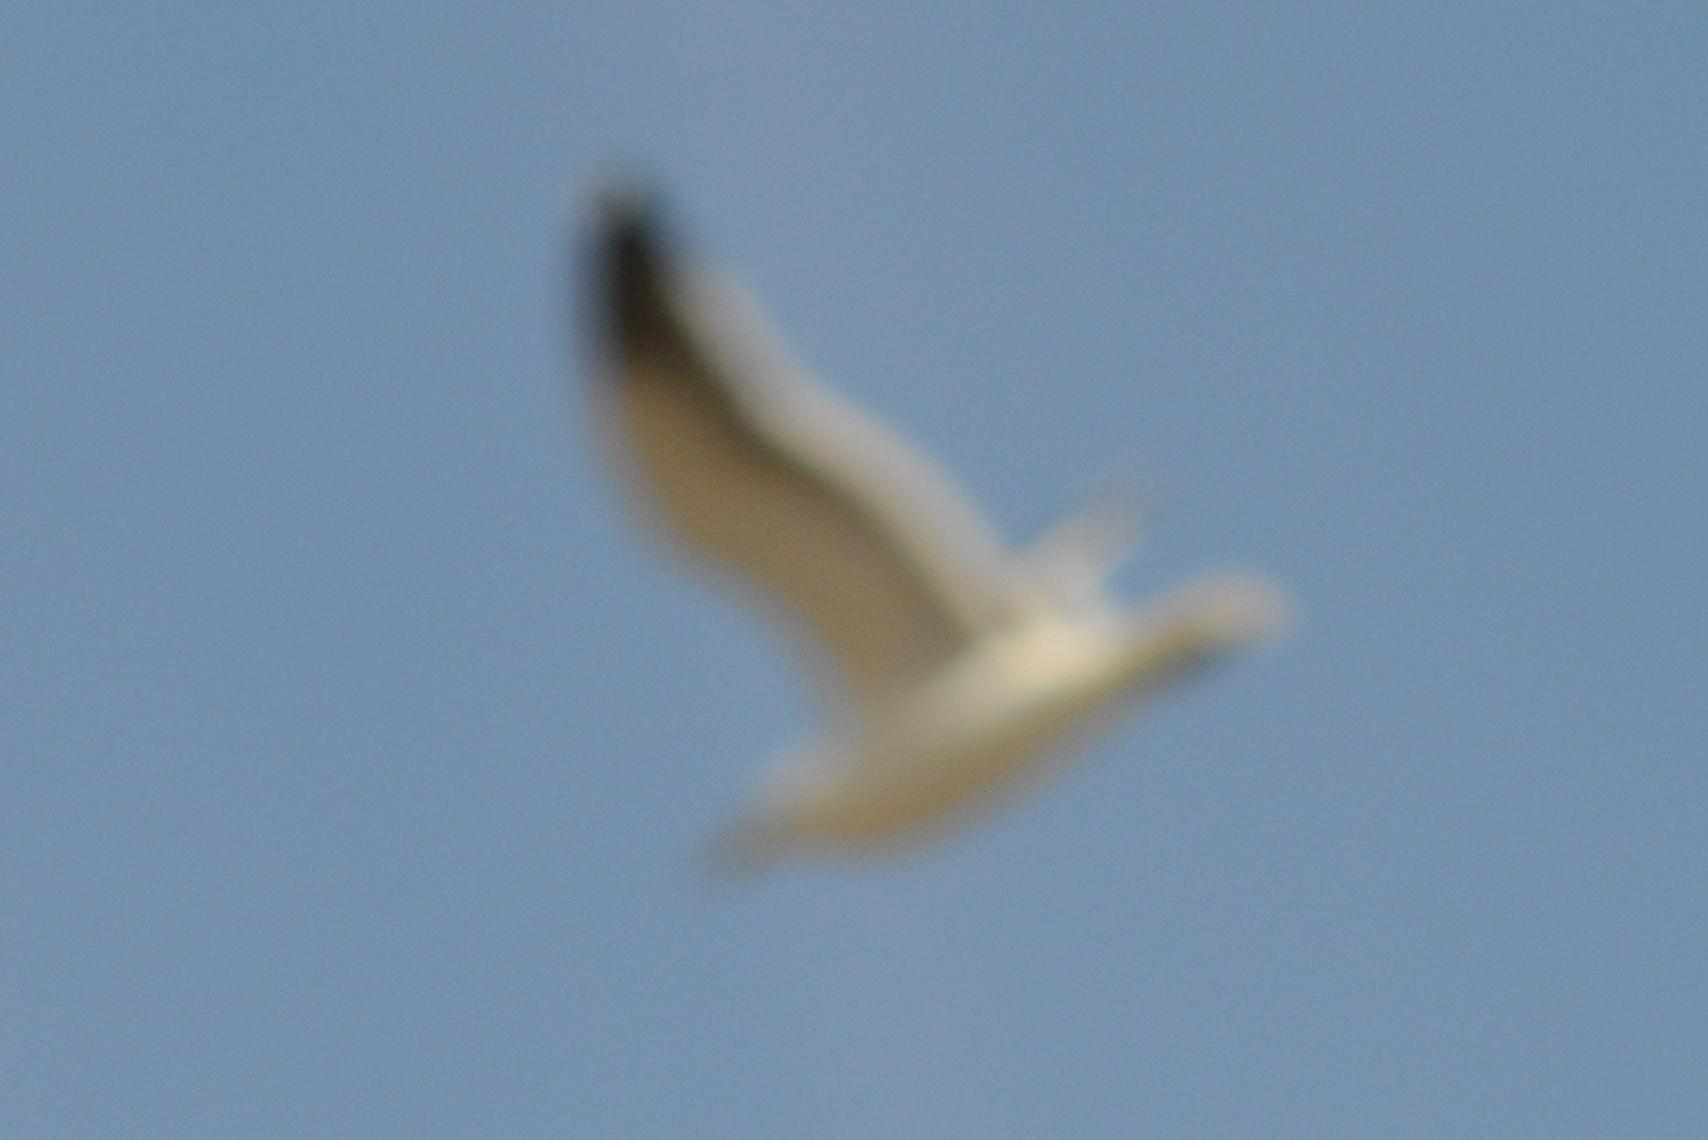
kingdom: Animalia
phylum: Chordata
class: Aves
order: Charadriiformes
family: Laridae
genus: Larus
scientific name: Larus dominicanus
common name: Kelp gull
